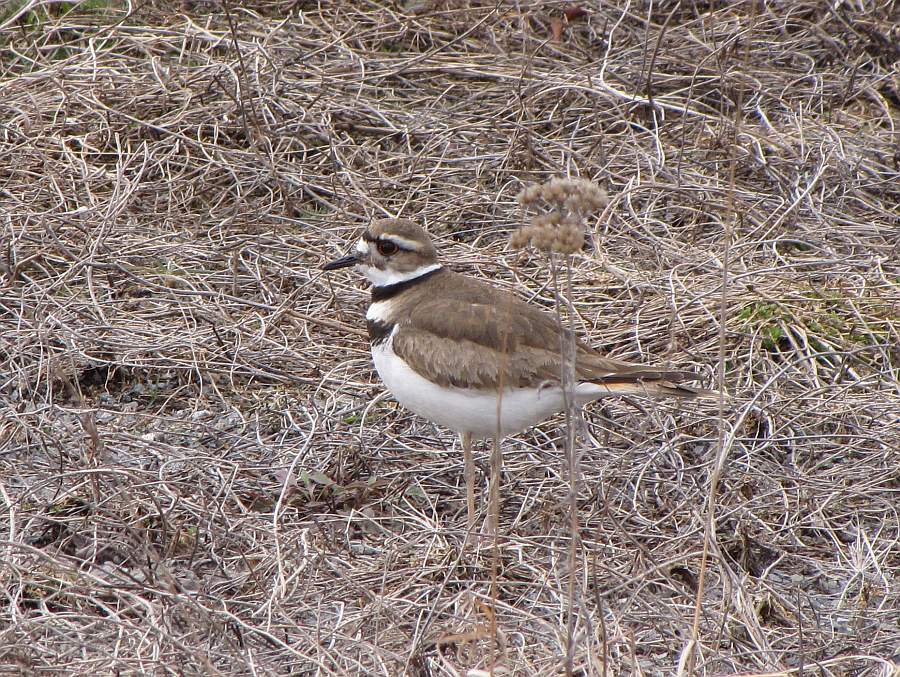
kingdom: Animalia
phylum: Chordata
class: Aves
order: Charadriiformes
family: Charadriidae
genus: Charadrius
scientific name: Charadrius vociferus
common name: Killdeer
